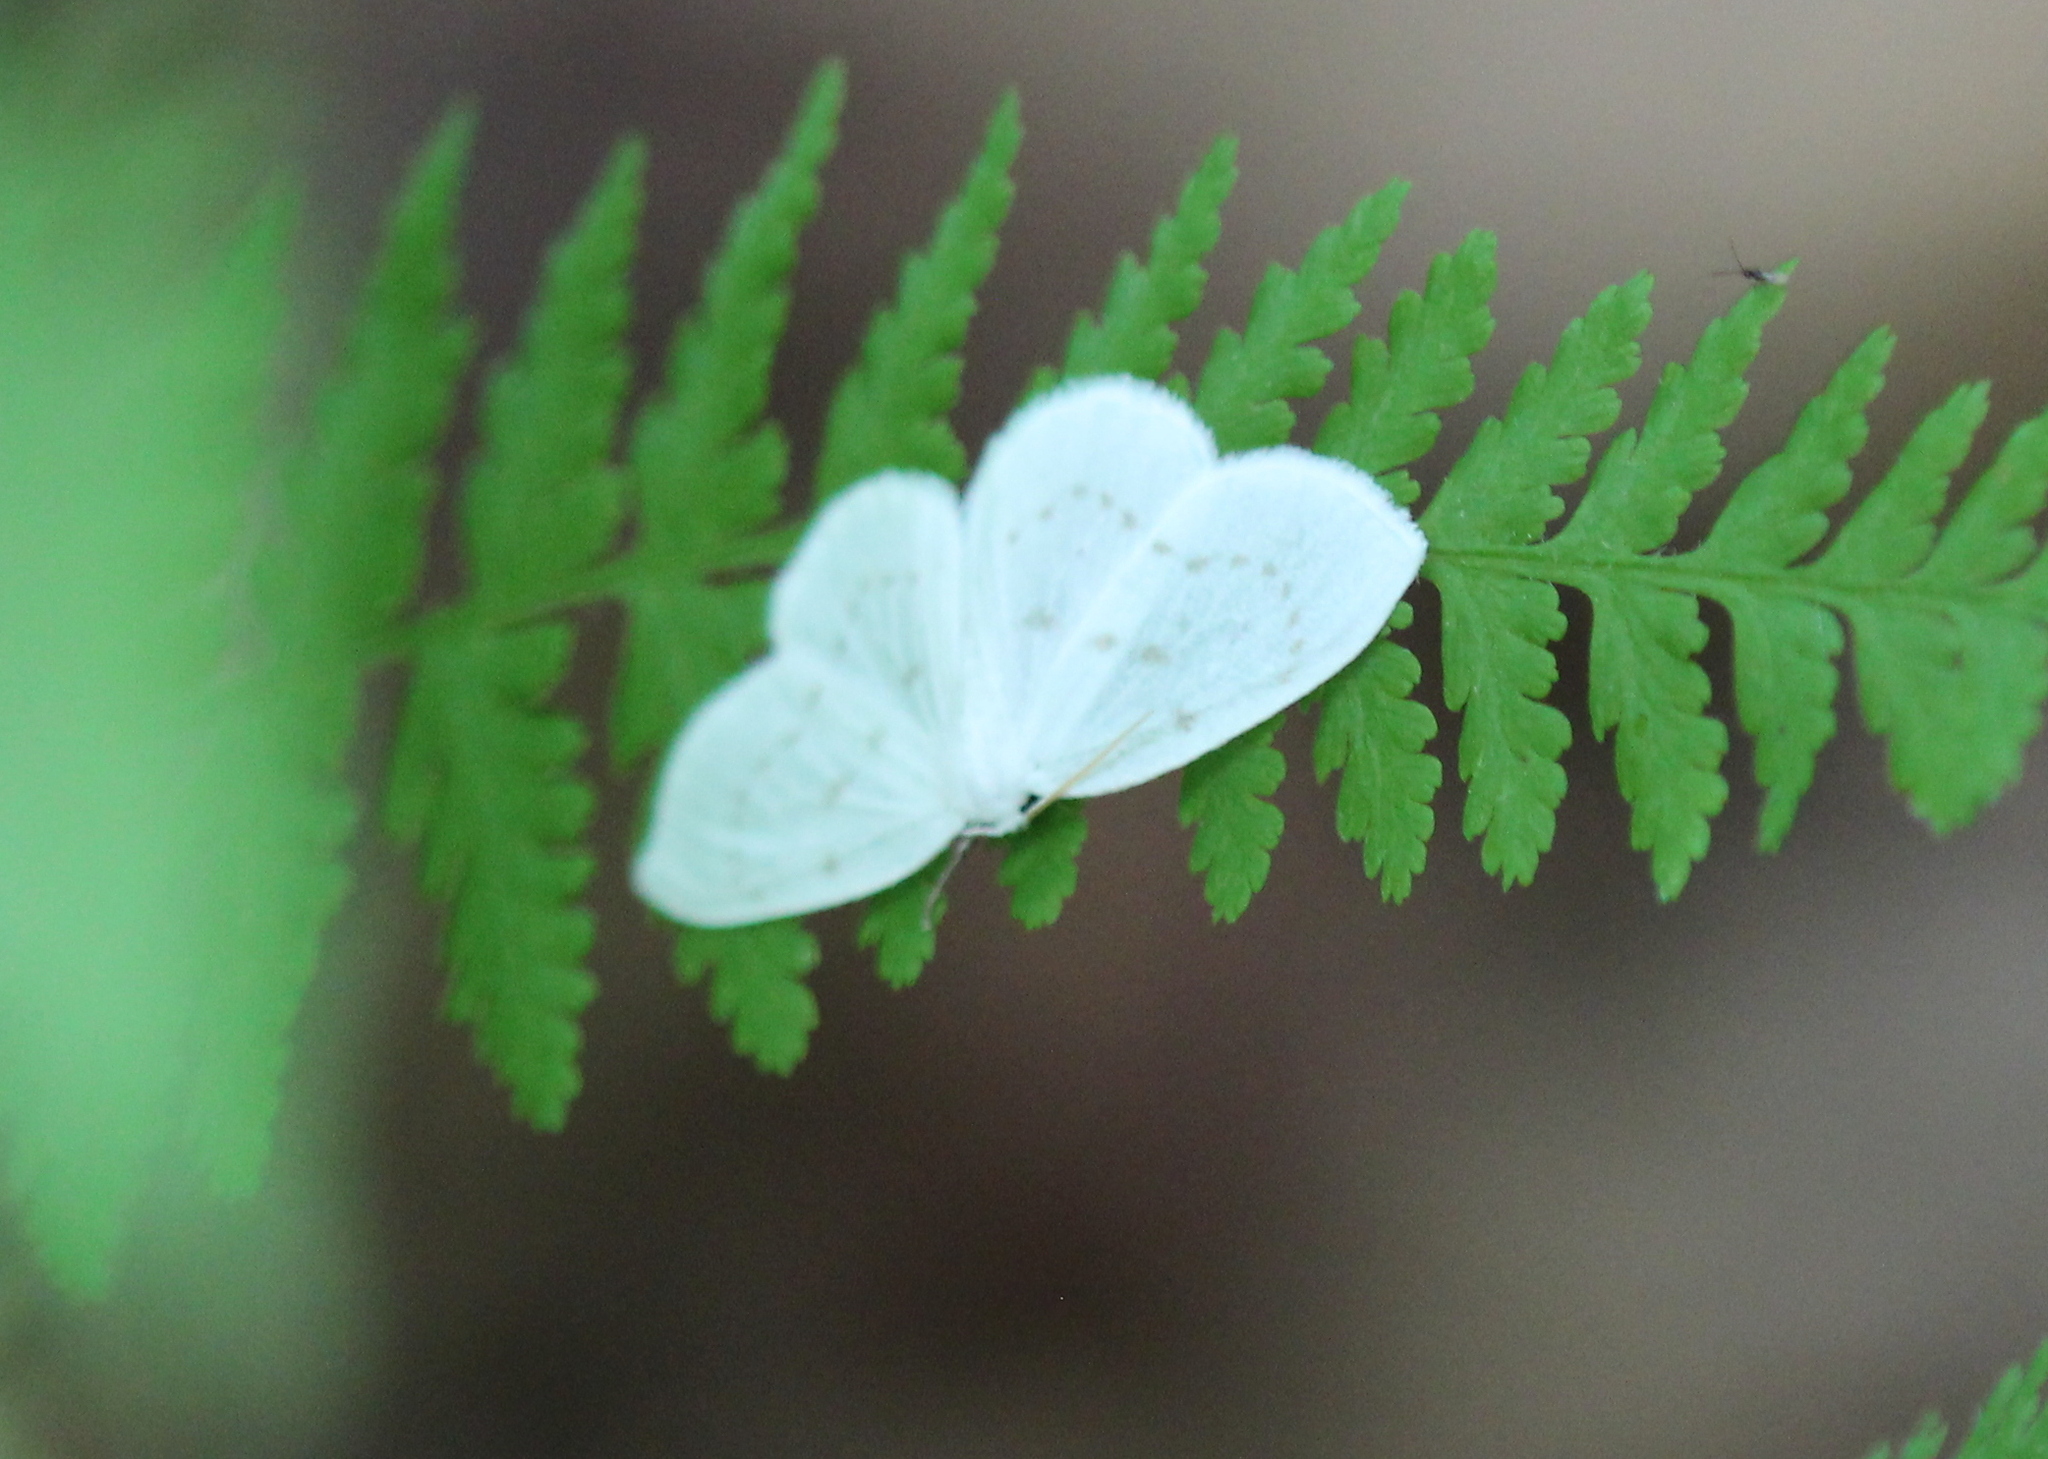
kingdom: Animalia
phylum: Arthropoda
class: Insecta
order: Lepidoptera
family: Drepanidae
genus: Eudeilinia
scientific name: Eudeilinia herminiata
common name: Northern eudeilinea moth
